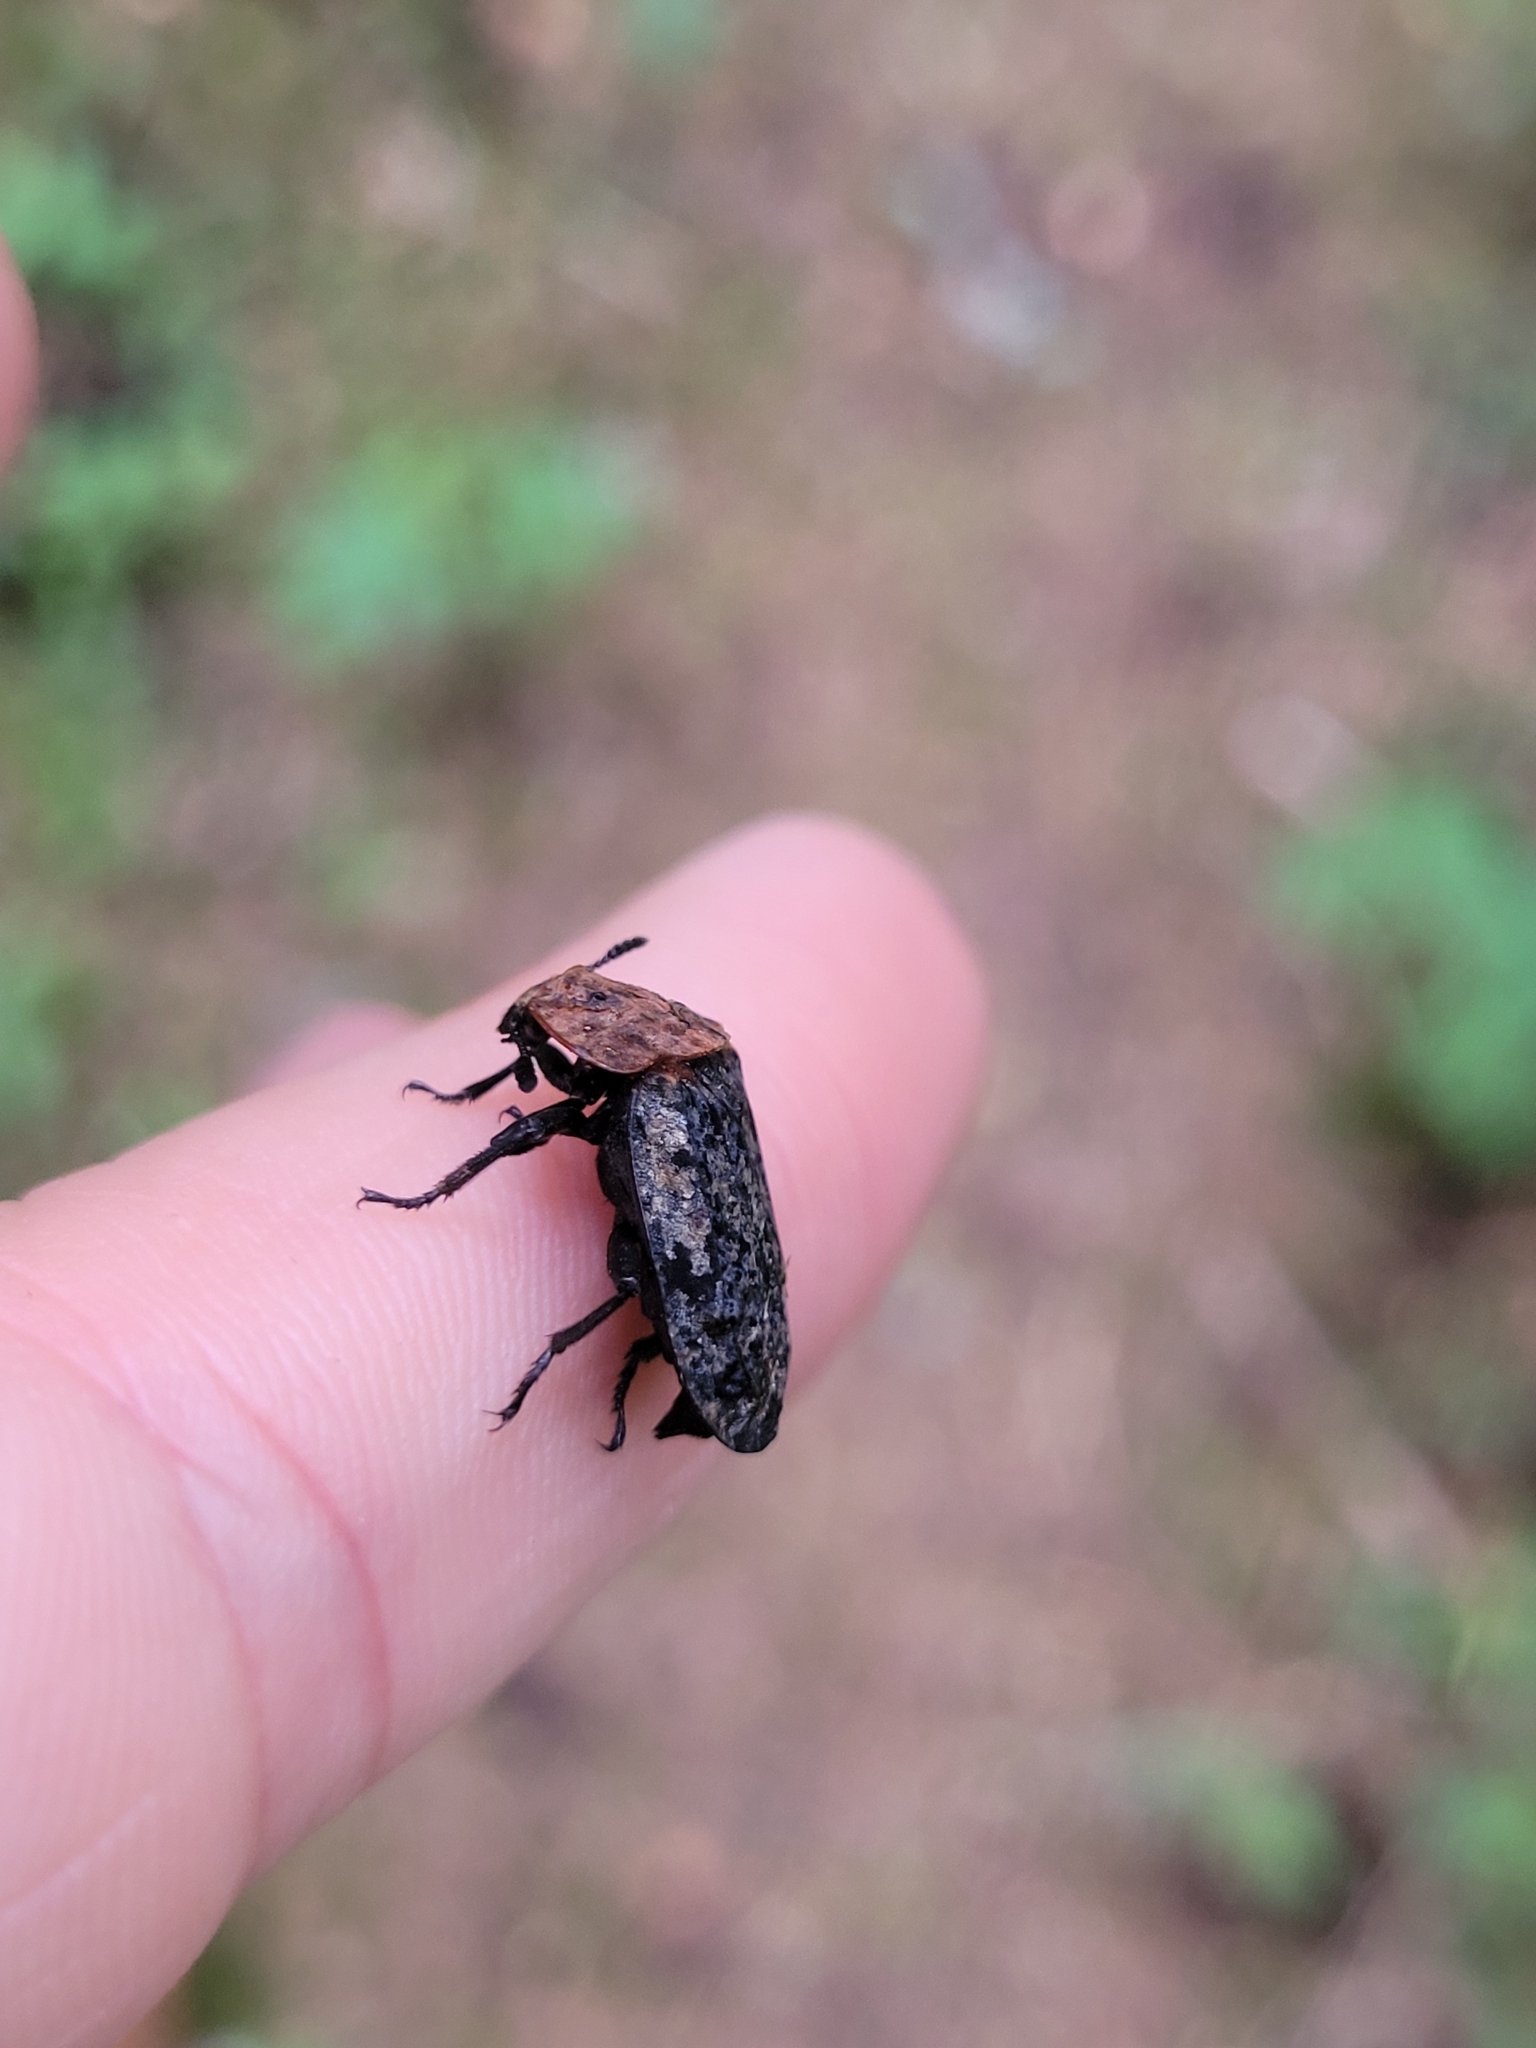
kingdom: Animalia
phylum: Arthropoda
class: Insecta
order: Coleoptera
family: Staphylinidae
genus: Oiceoptoma
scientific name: Oiceoptoma thoracicum
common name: Red-breasted carrion beetle
